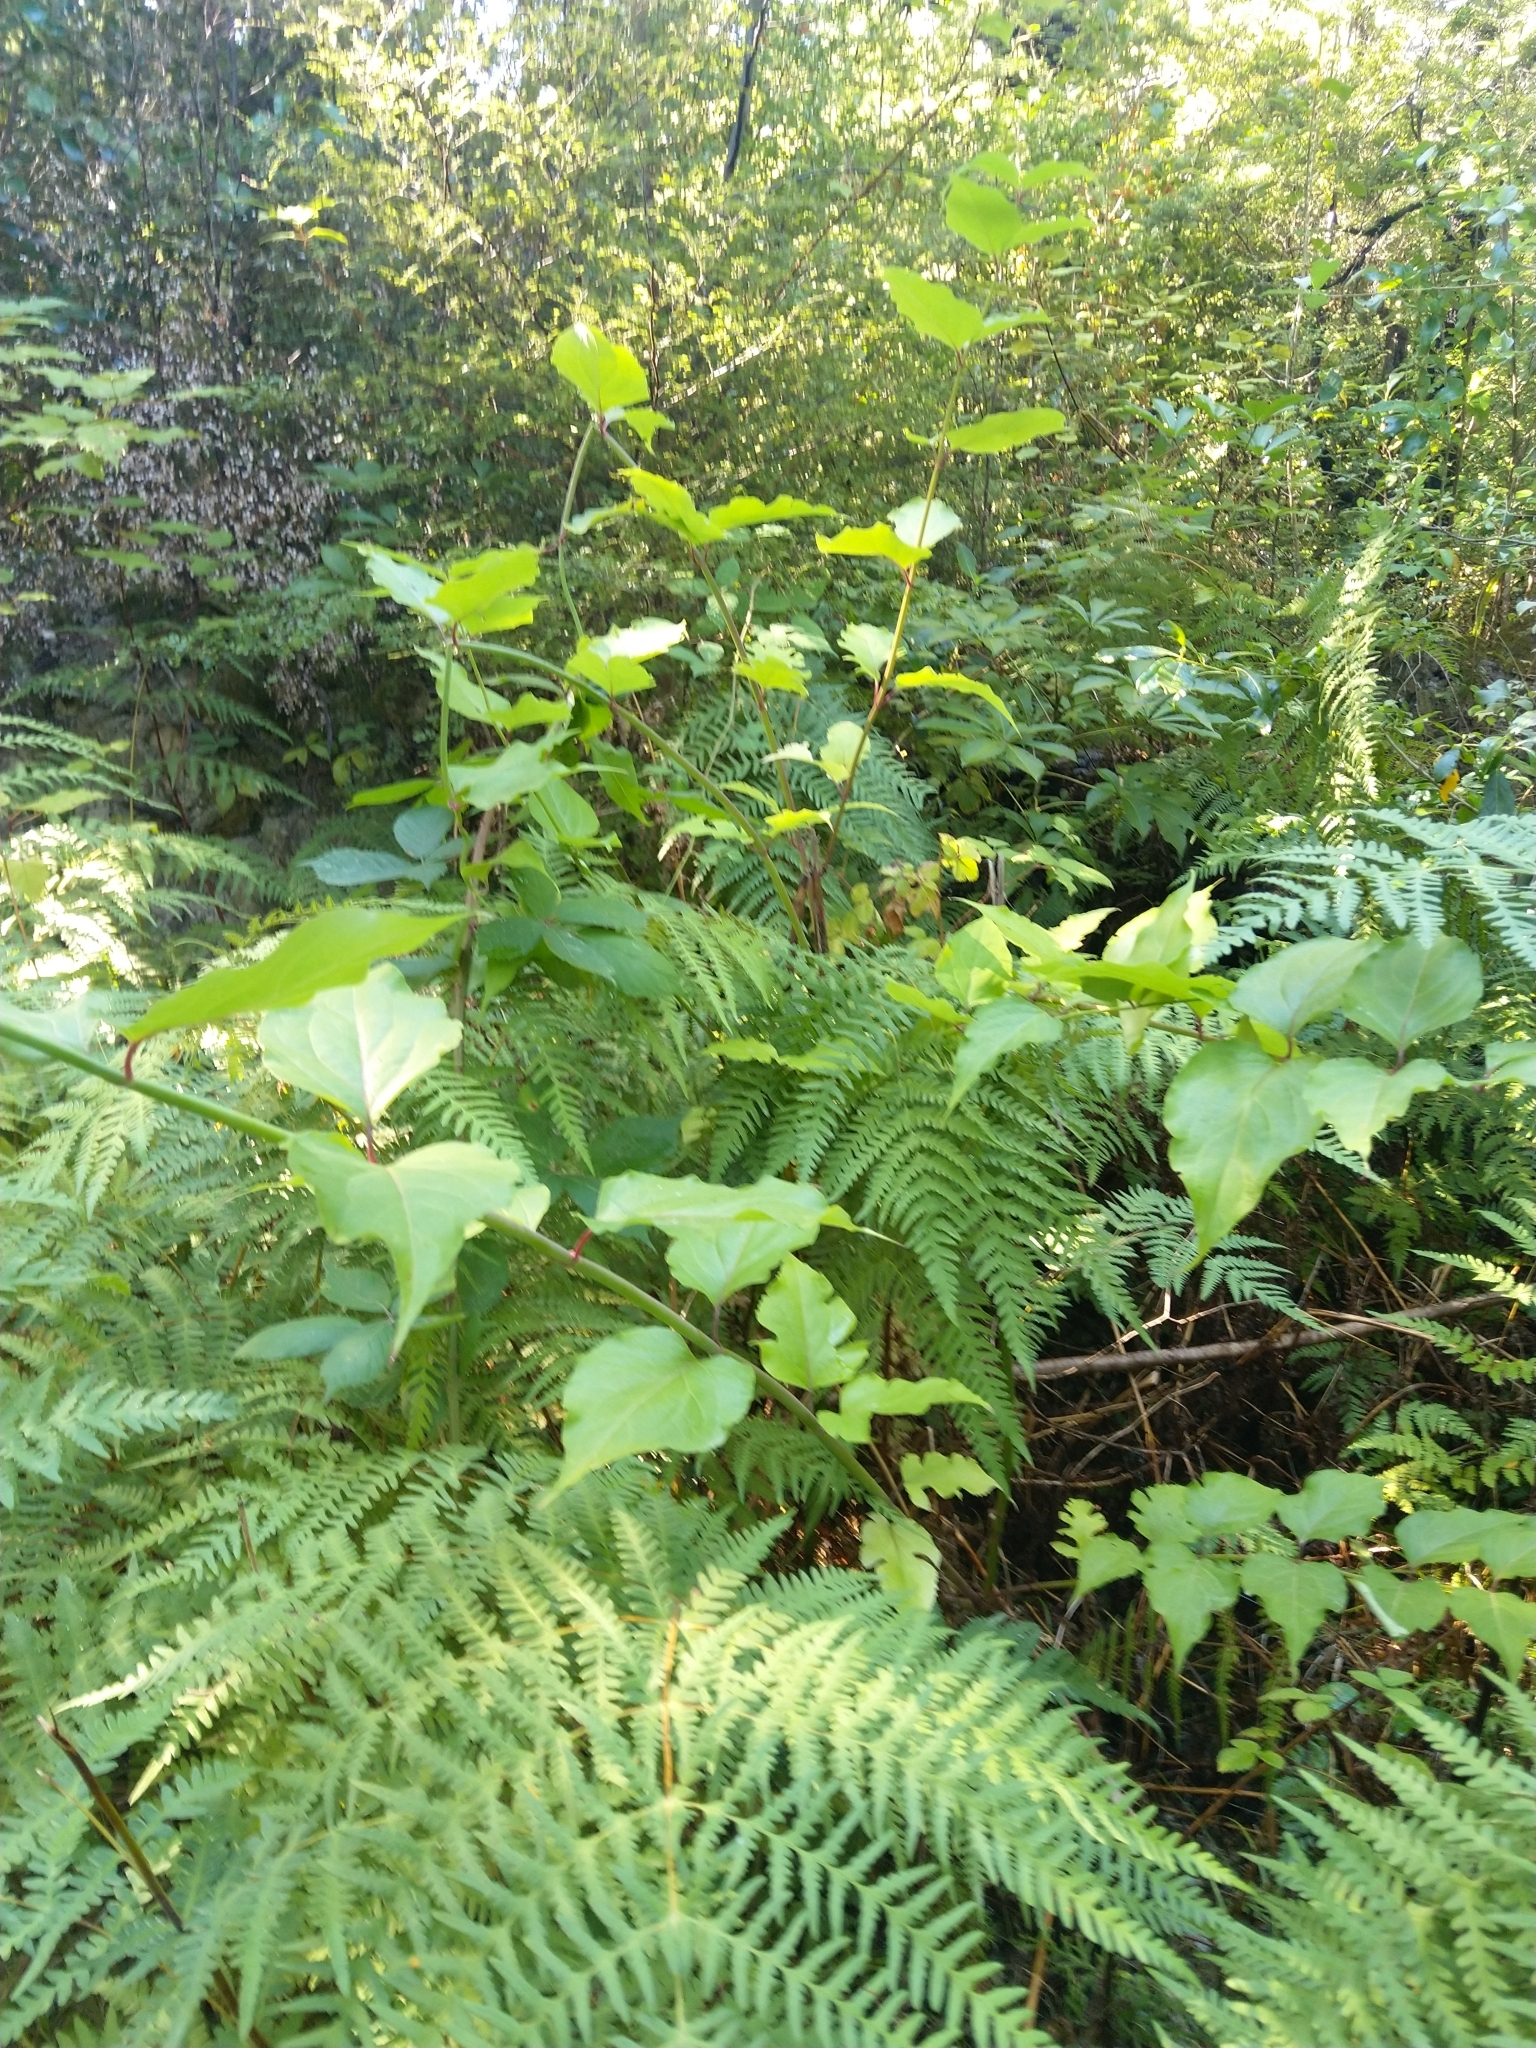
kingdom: Plantae
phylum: Tracheophyta
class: Magnoliopsida
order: Dipsacales
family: Caprifoliaceae
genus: Lonicera
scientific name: Lonicera japonica
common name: Japanese honeysuckle
